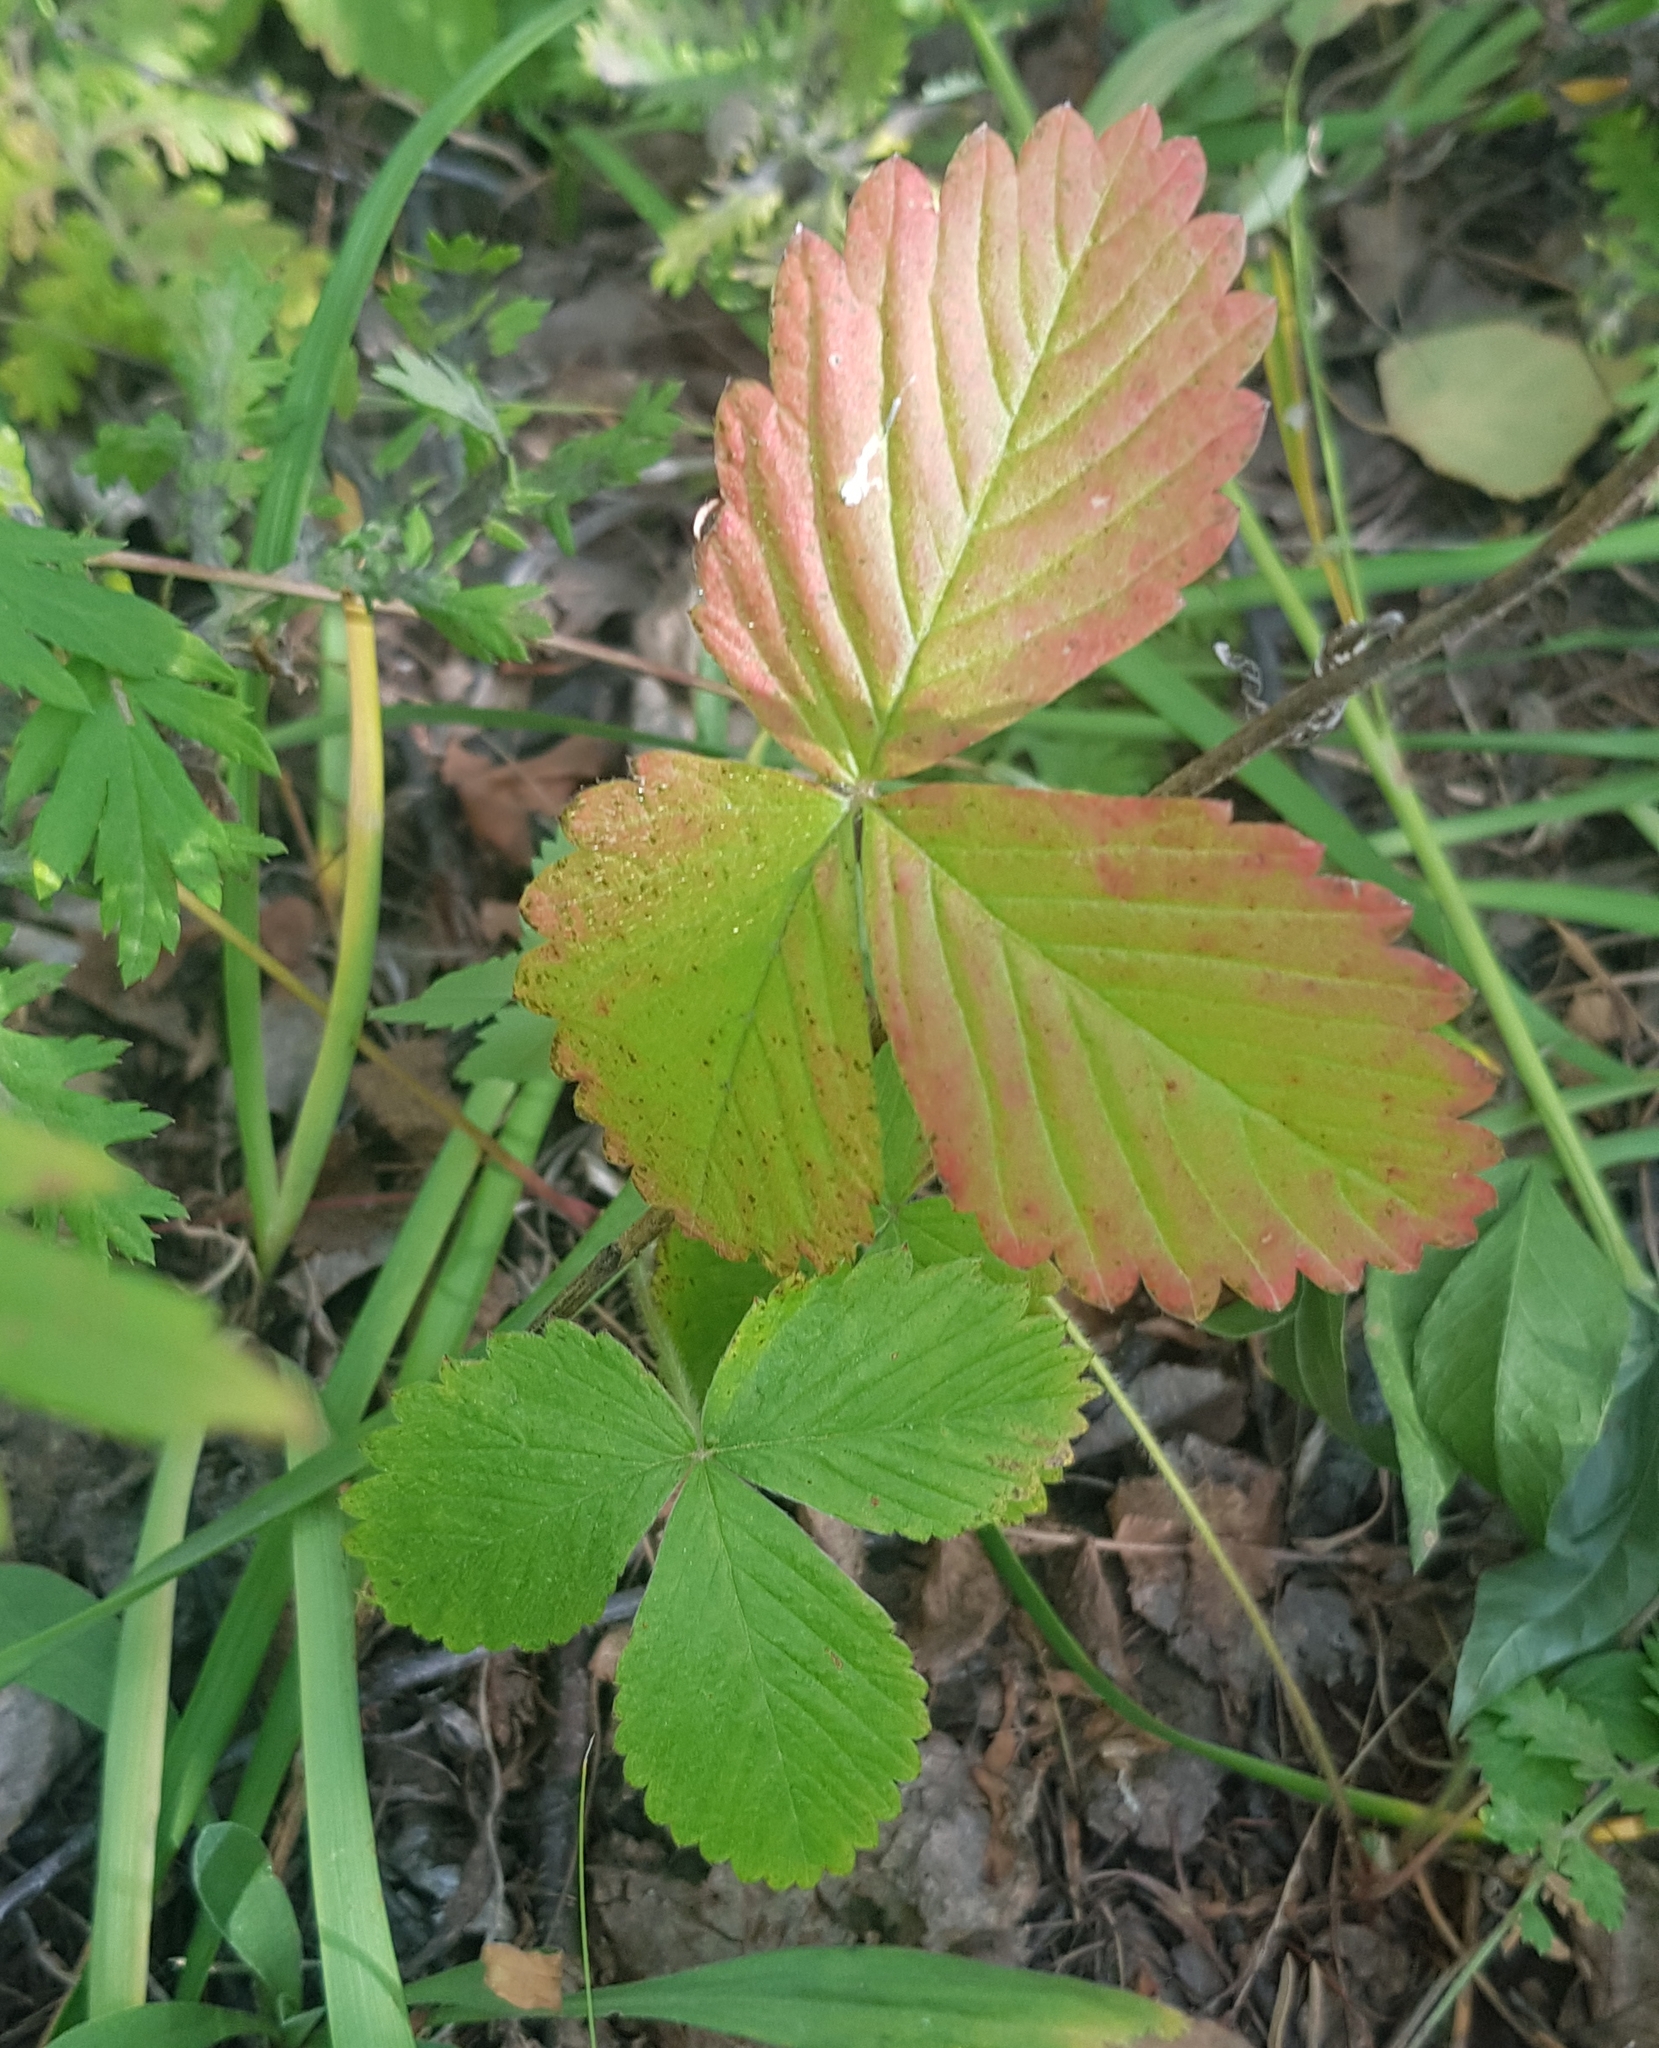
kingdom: Plantae
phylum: Tracheophyta
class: Magnoliopsida
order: Rosales
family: Rosaceae
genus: Rubus
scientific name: Rubus arcticus
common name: Arctic bramble
